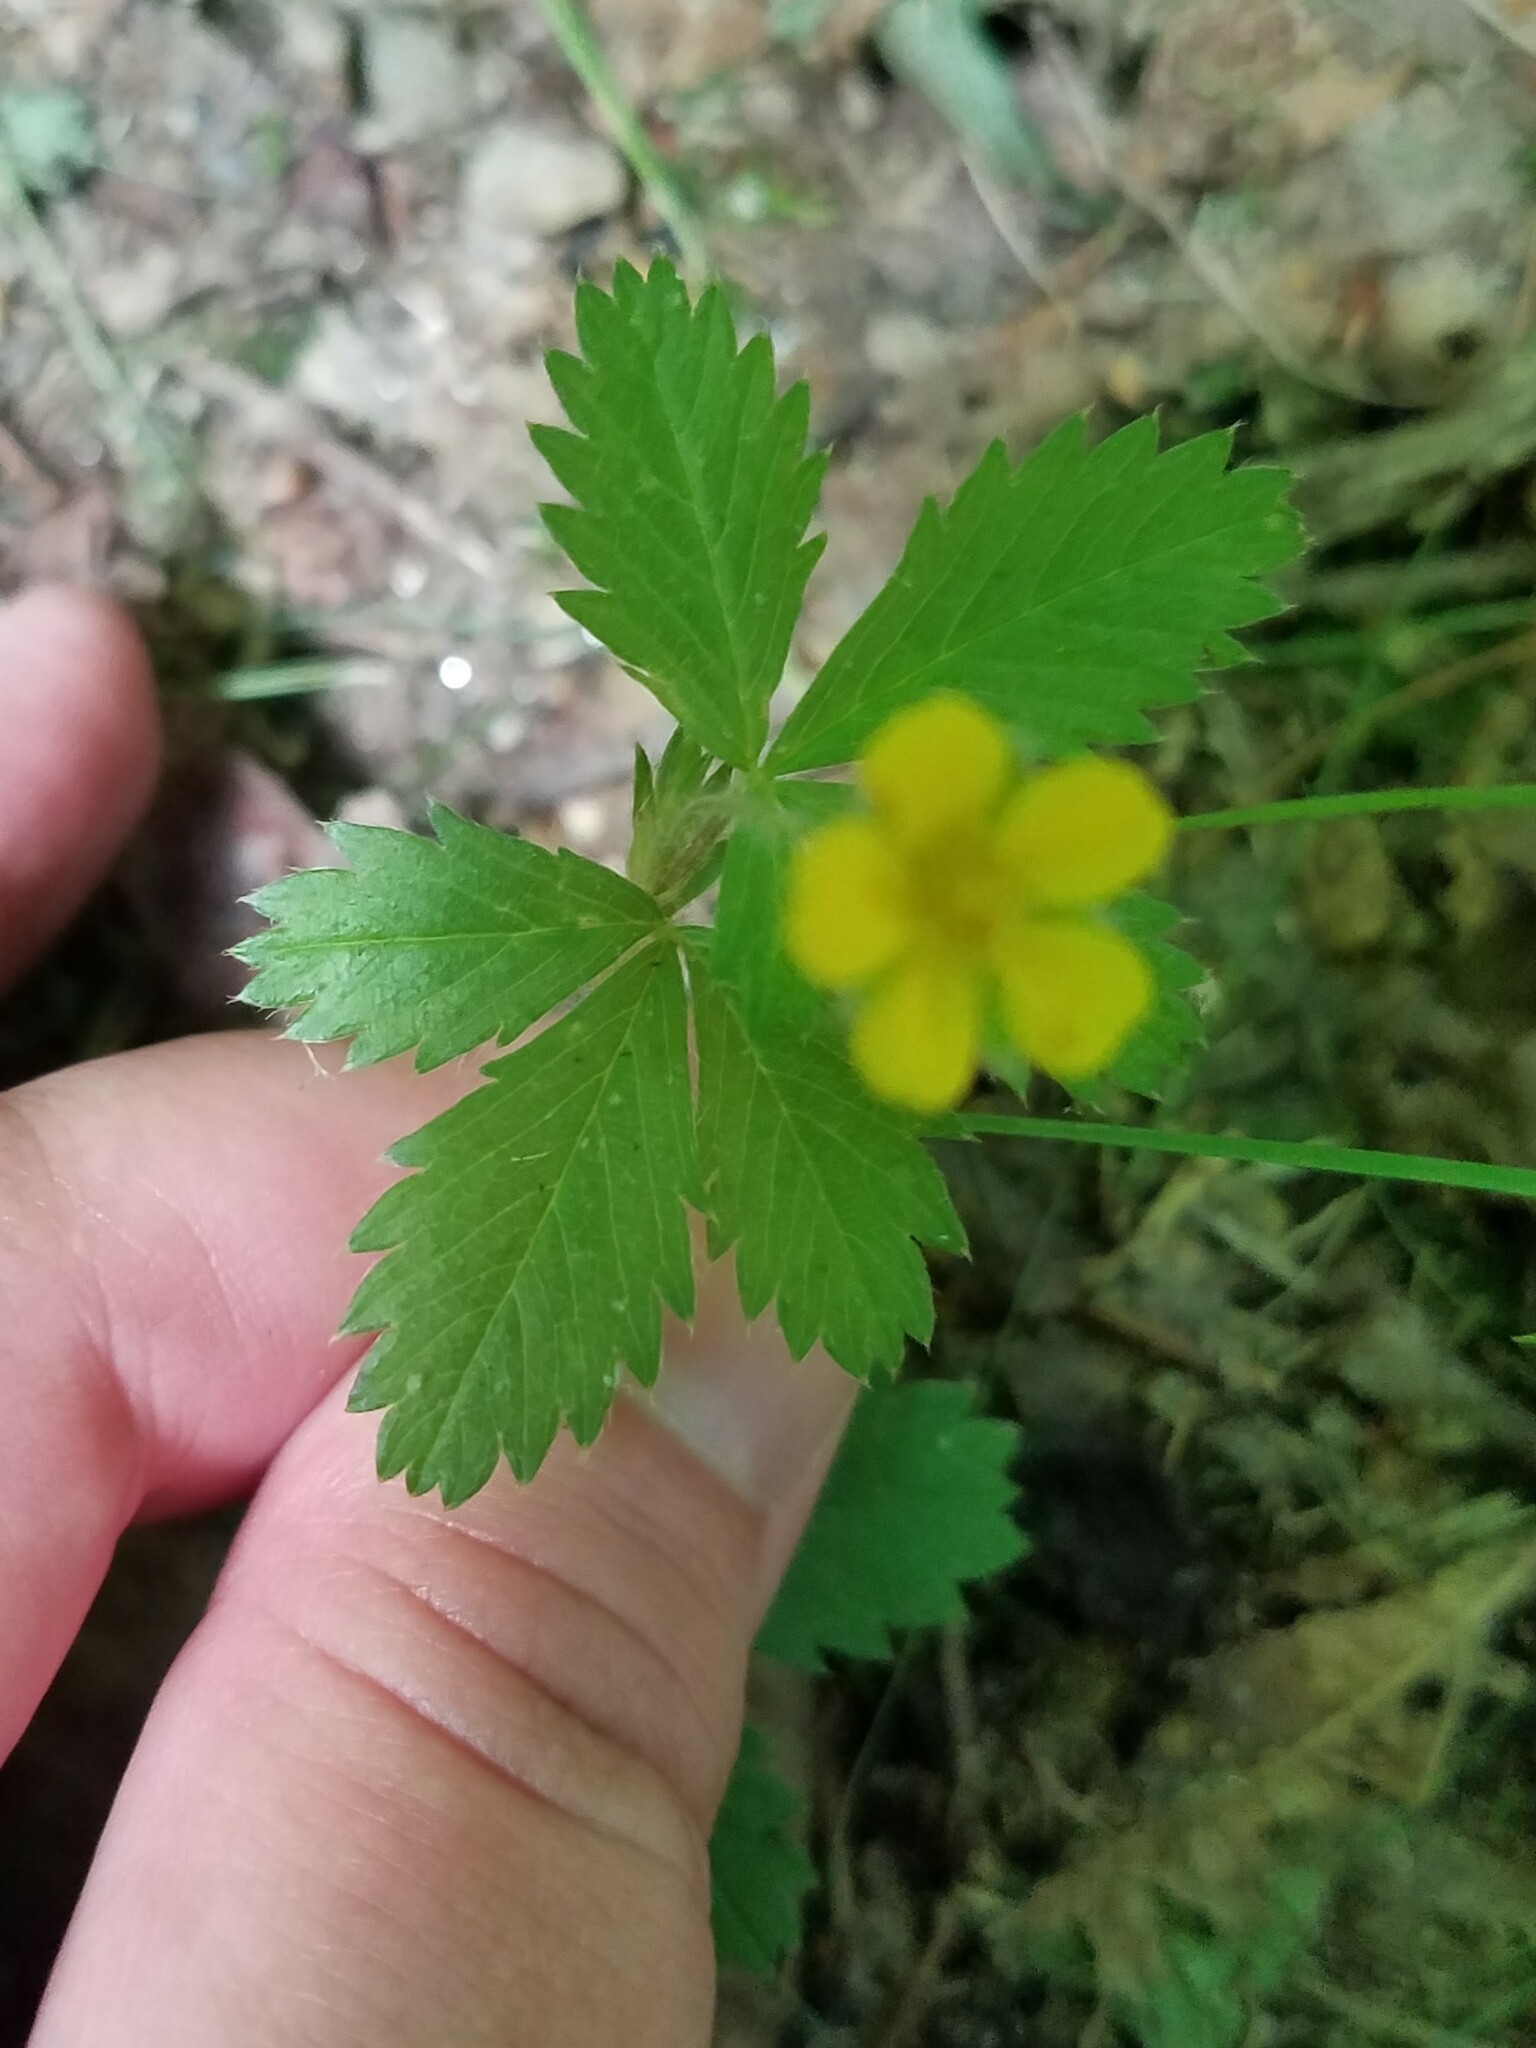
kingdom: Plantae
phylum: Tracheophyta
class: Magnoliopsida
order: Rosales
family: Rosaceae
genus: Potentilla
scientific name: Potentilla simplex
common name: Old field cinquefoil
